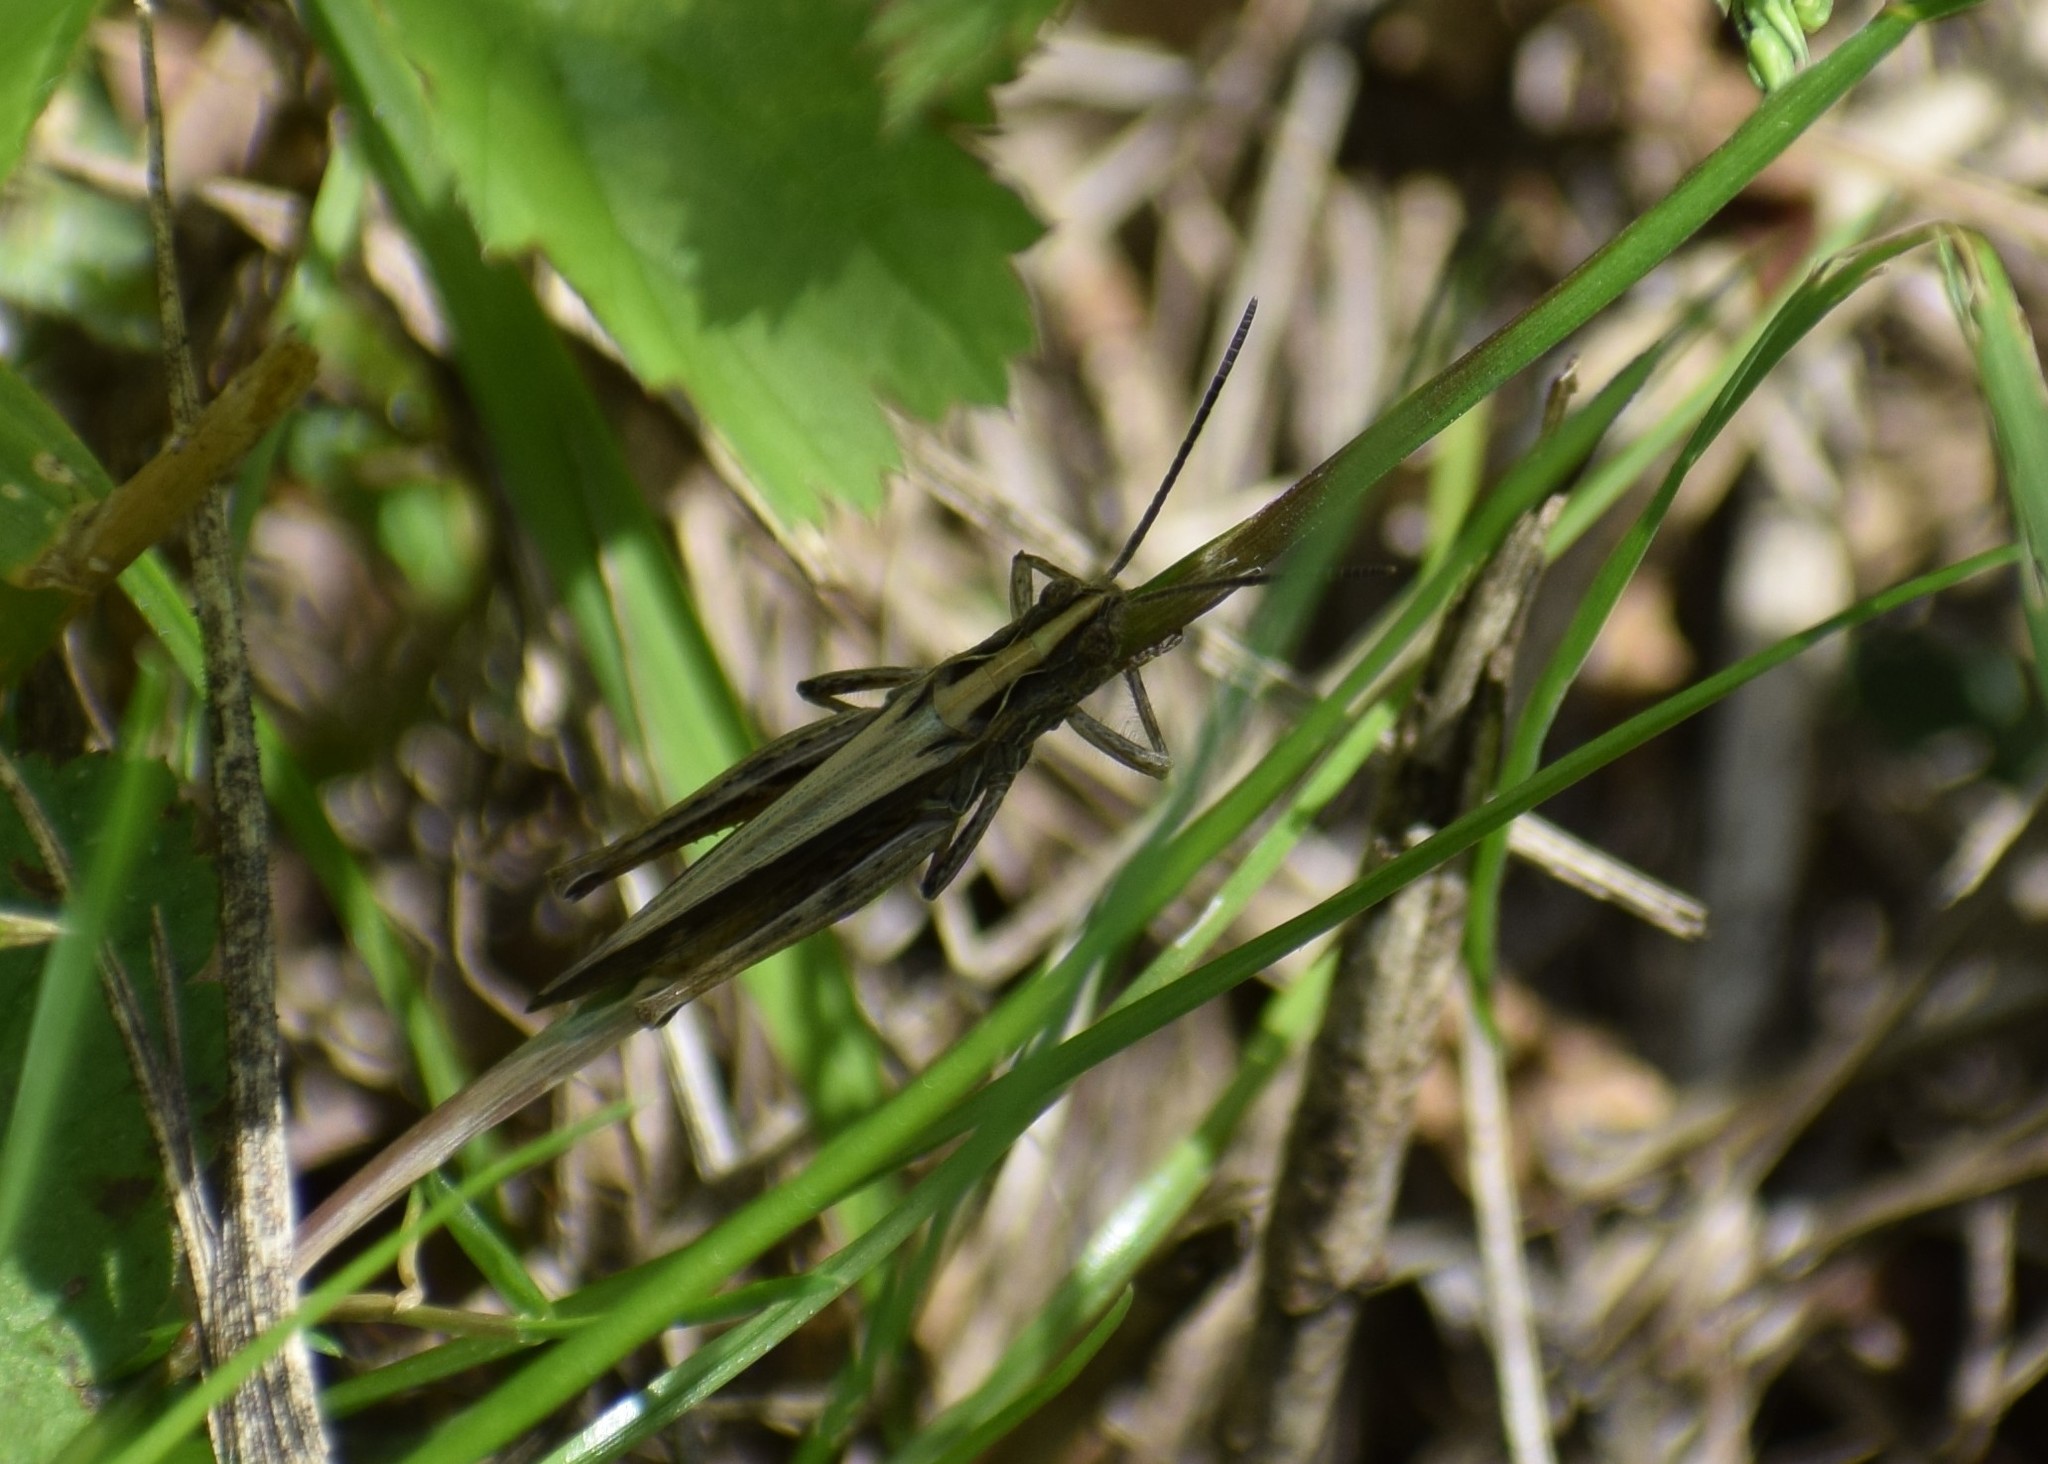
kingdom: Animalia
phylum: Arthropoda
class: Insecta
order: Orthoptera
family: Acrididae
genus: Chorthippus
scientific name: Chorthippus brunneus
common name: Field grasshopper
